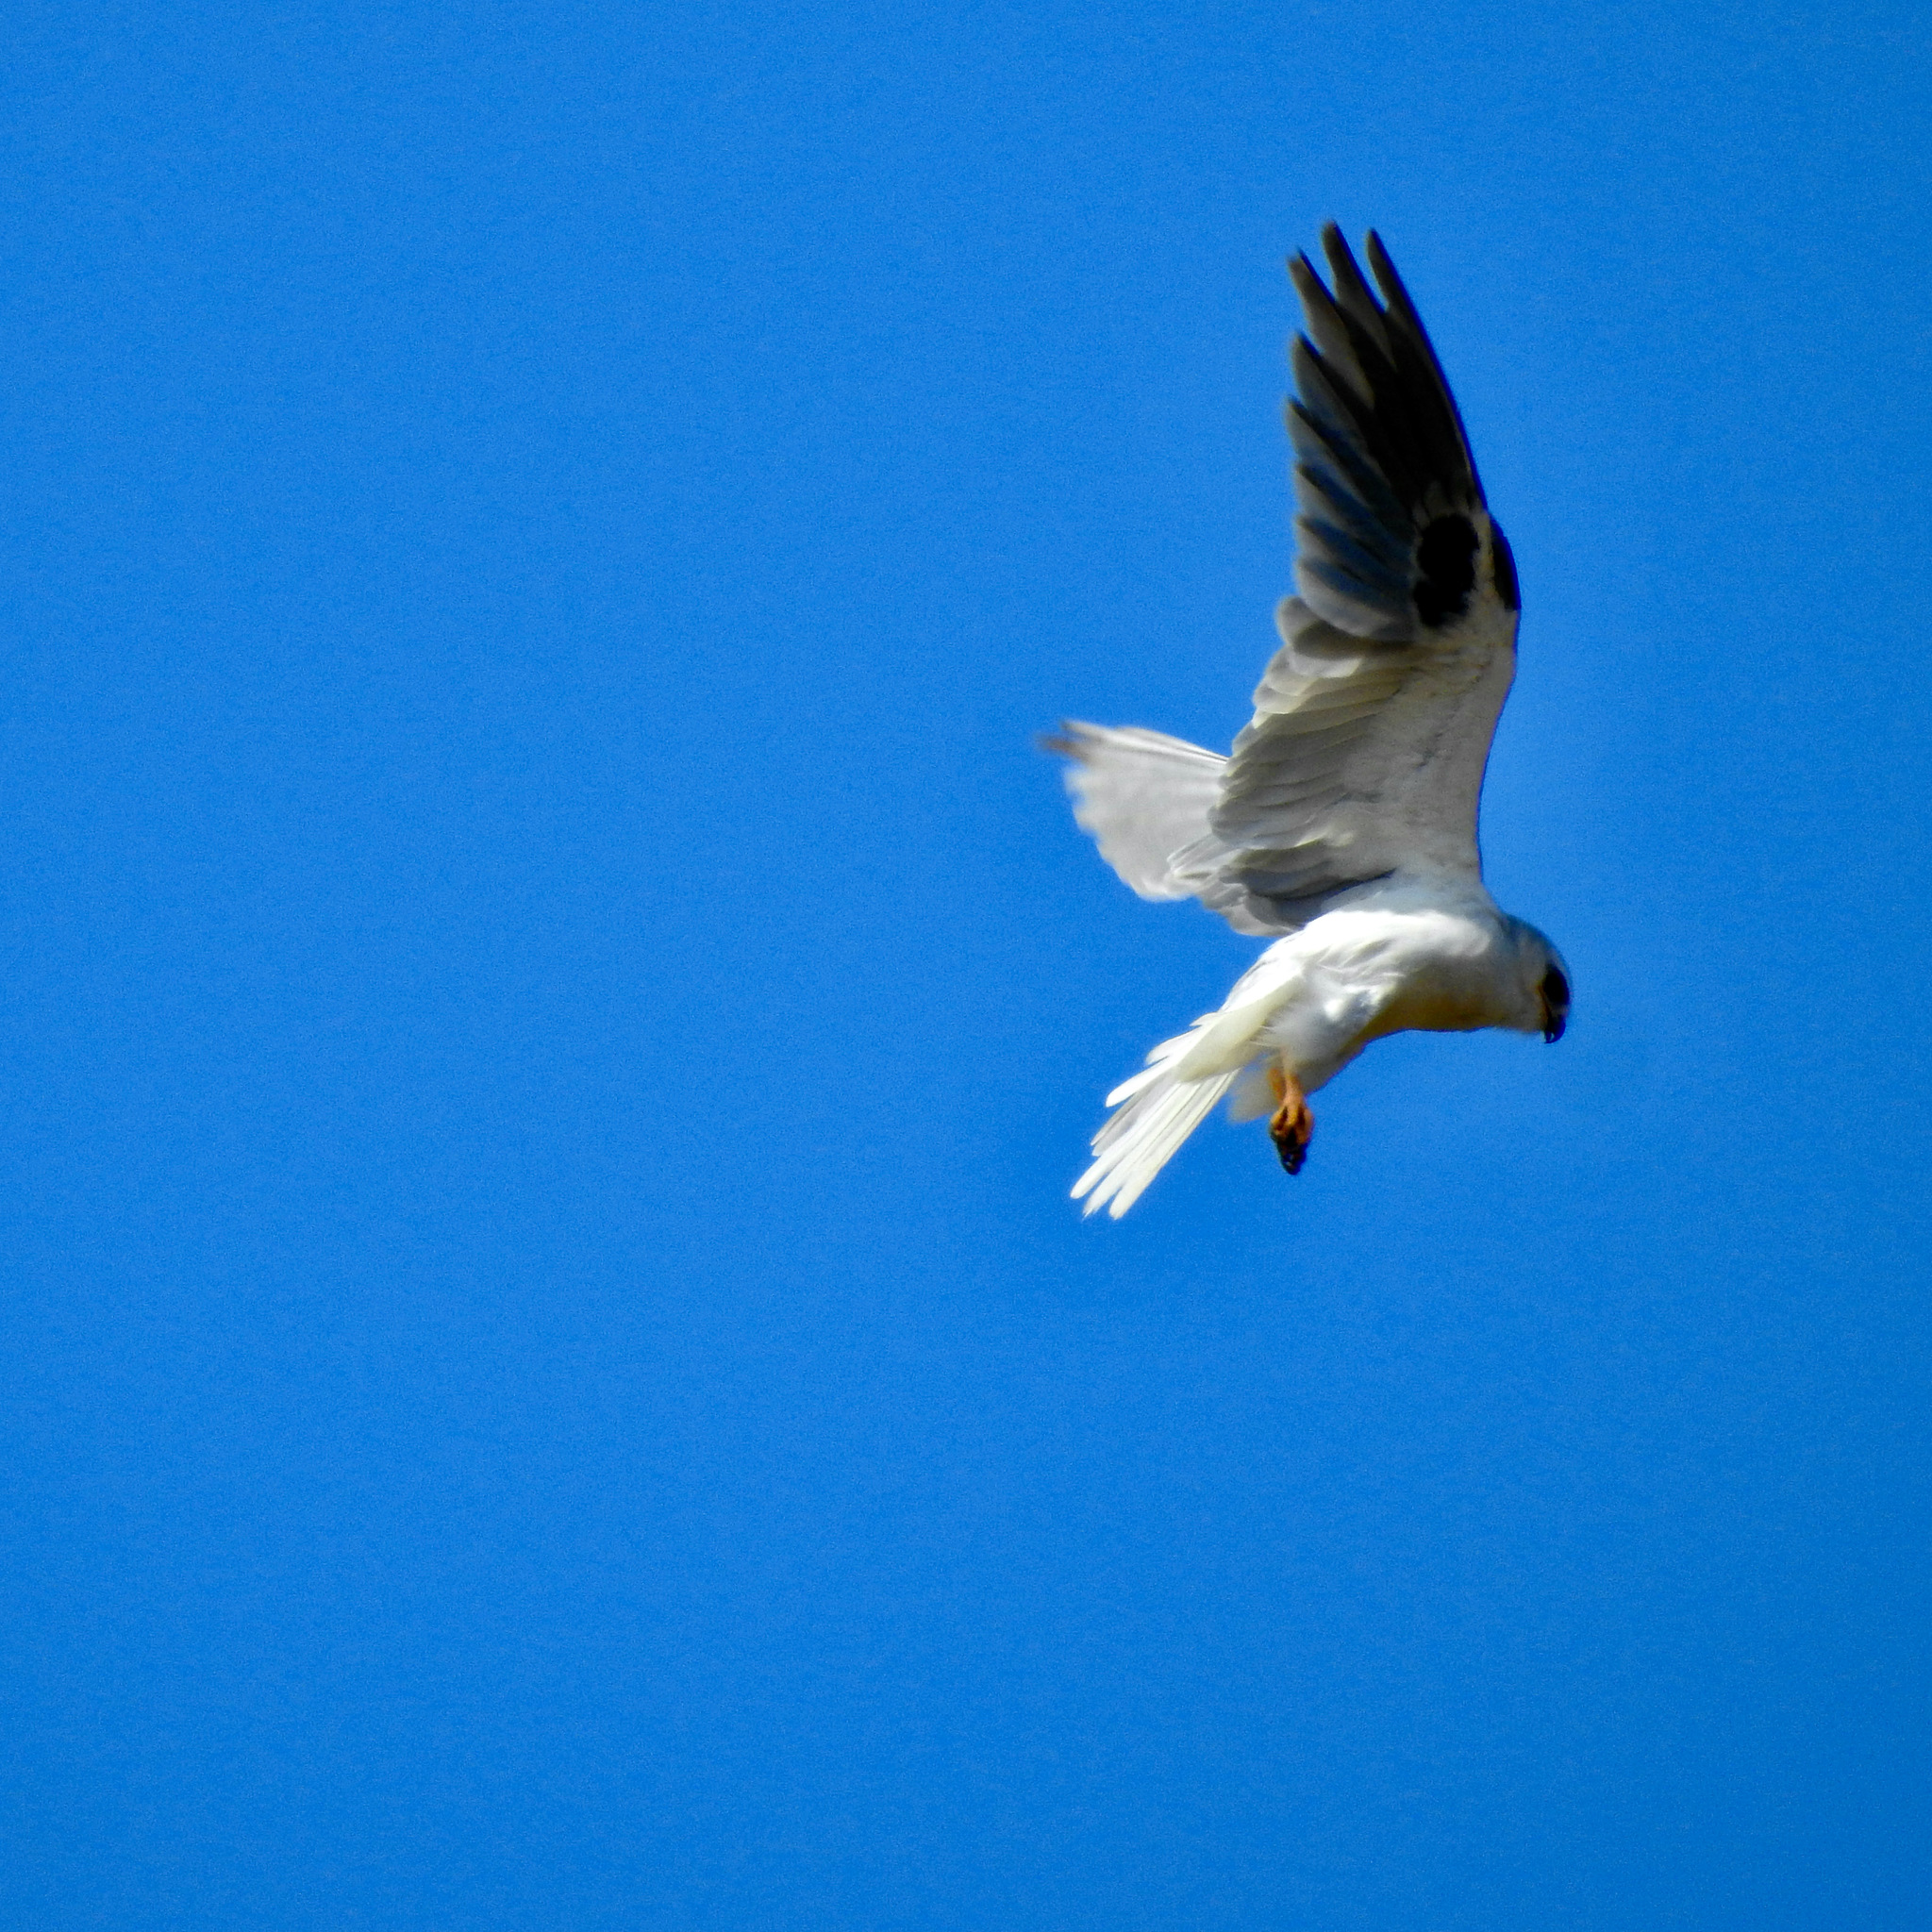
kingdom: Animalia
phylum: Chordata
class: Aves
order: Accipitriformes
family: Accipitridae
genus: Elanus
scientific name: Elanus leucurus
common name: White-tailed kite
